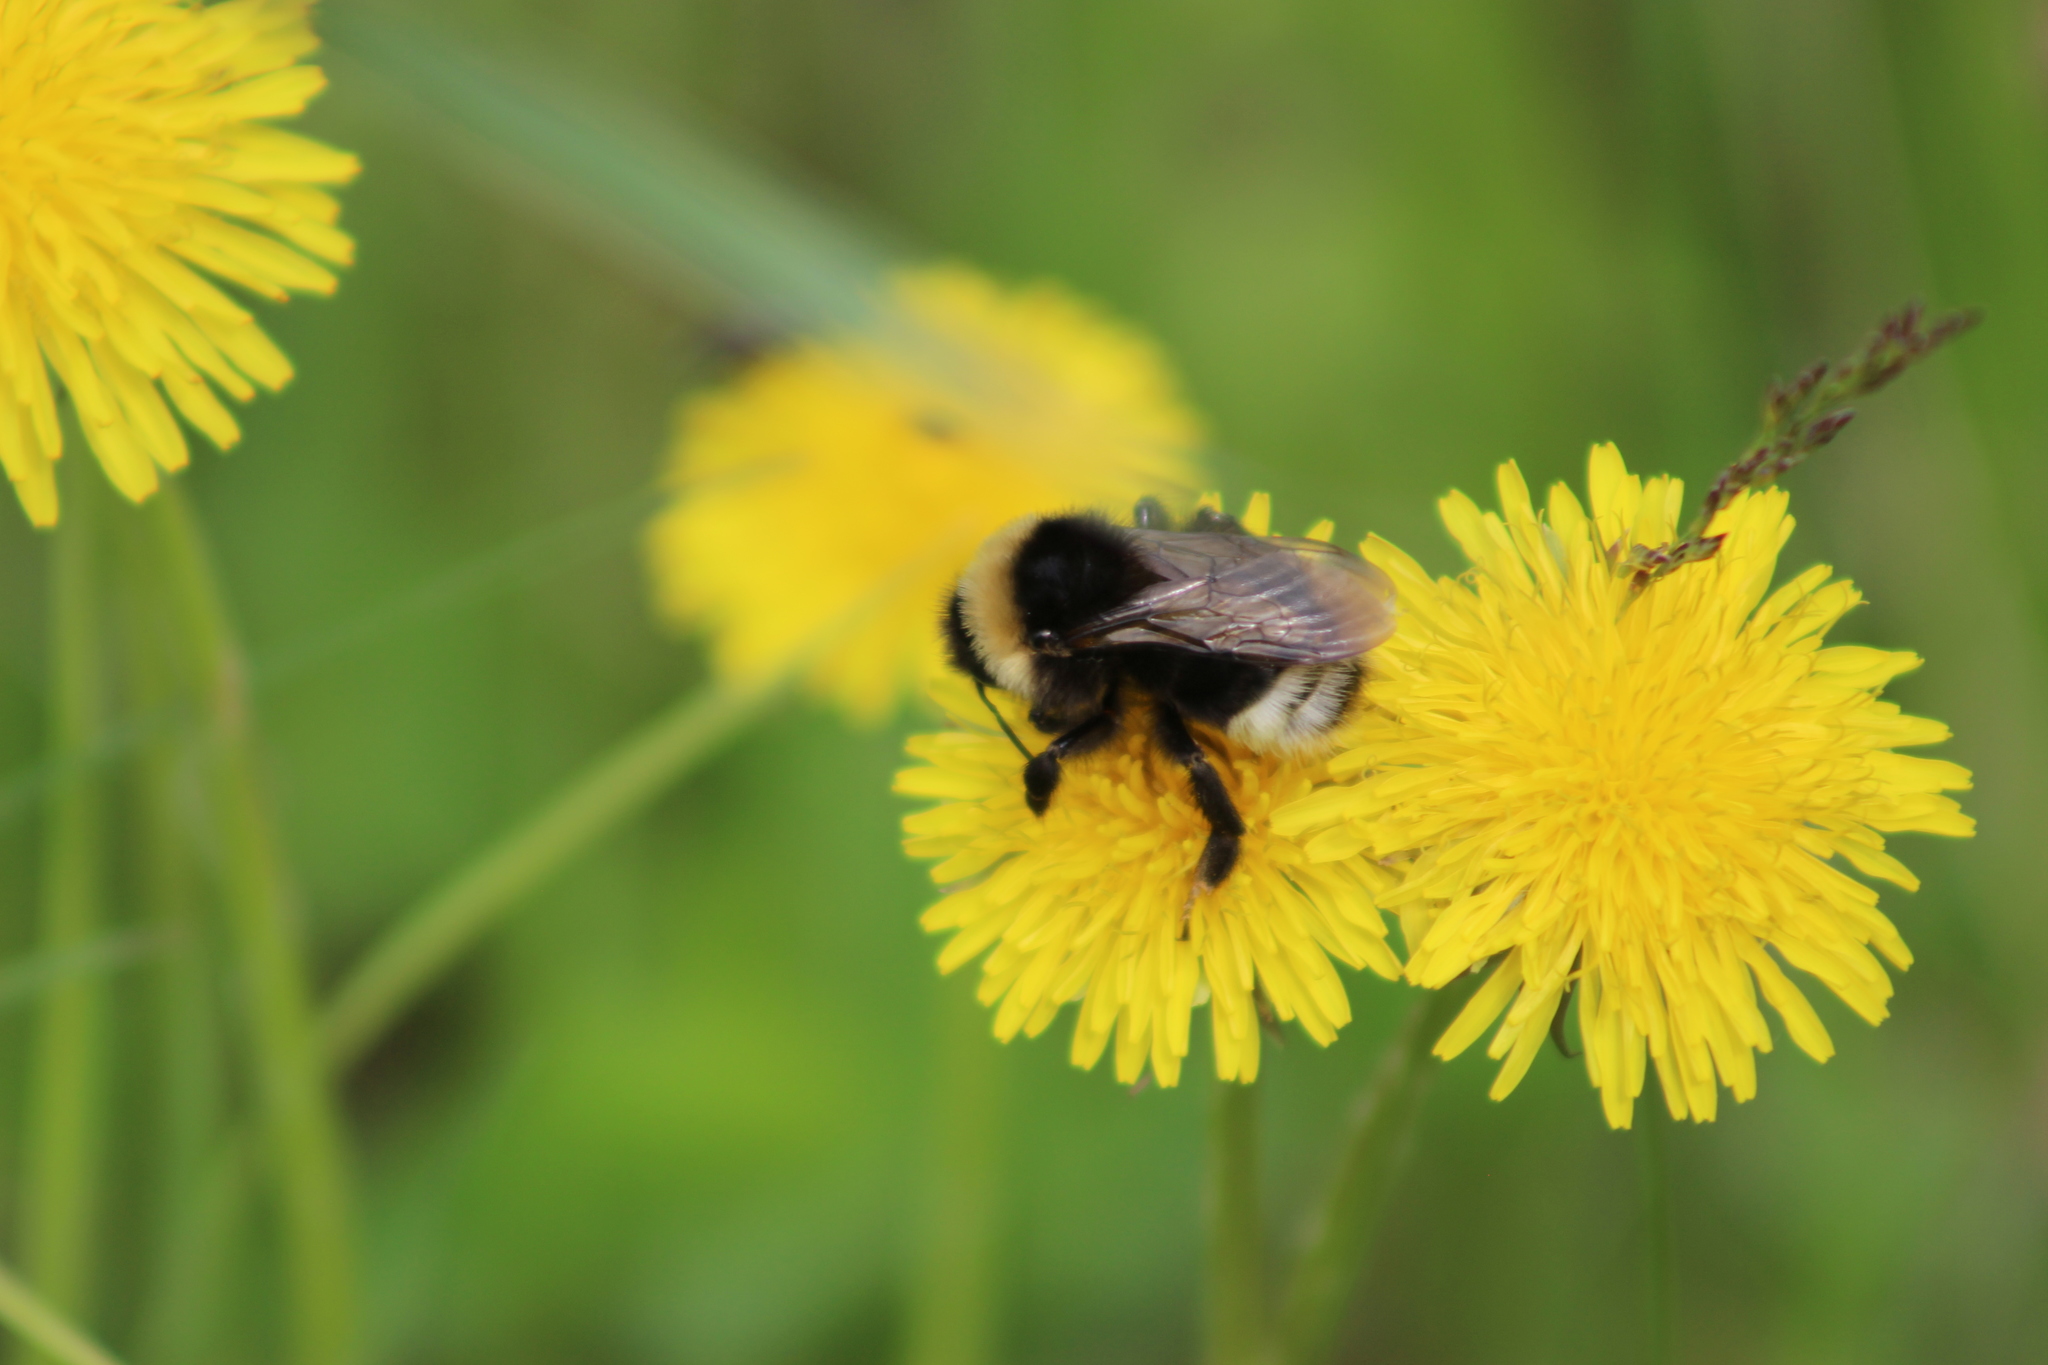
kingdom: Animalia
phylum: Arthropoda
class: Insecta
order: Hymenoptera
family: Apidae
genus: Bombus
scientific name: Bombus bohemicus
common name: Gypsy cuckoo bee
